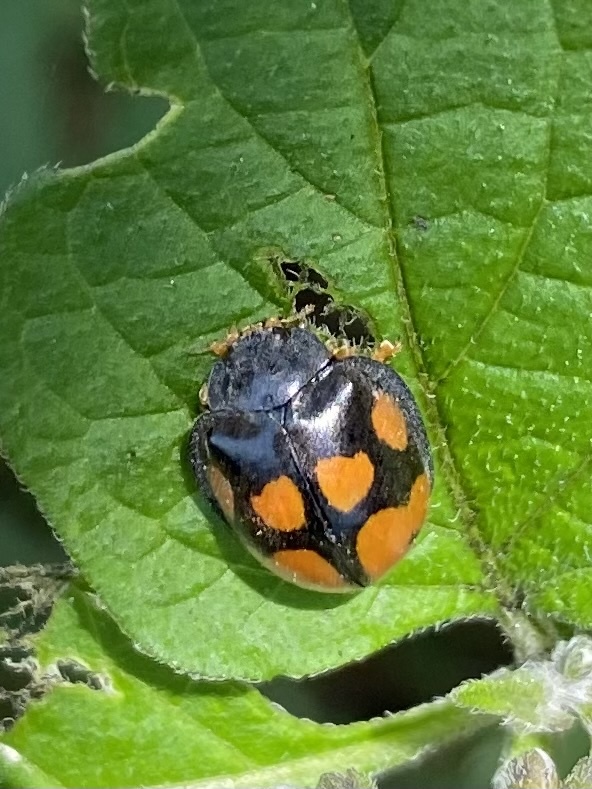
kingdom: Animalia
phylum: Arthropoda
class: Insecta
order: Coleoptera
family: Coccinellidae
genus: Epilachna
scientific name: Epilachna
